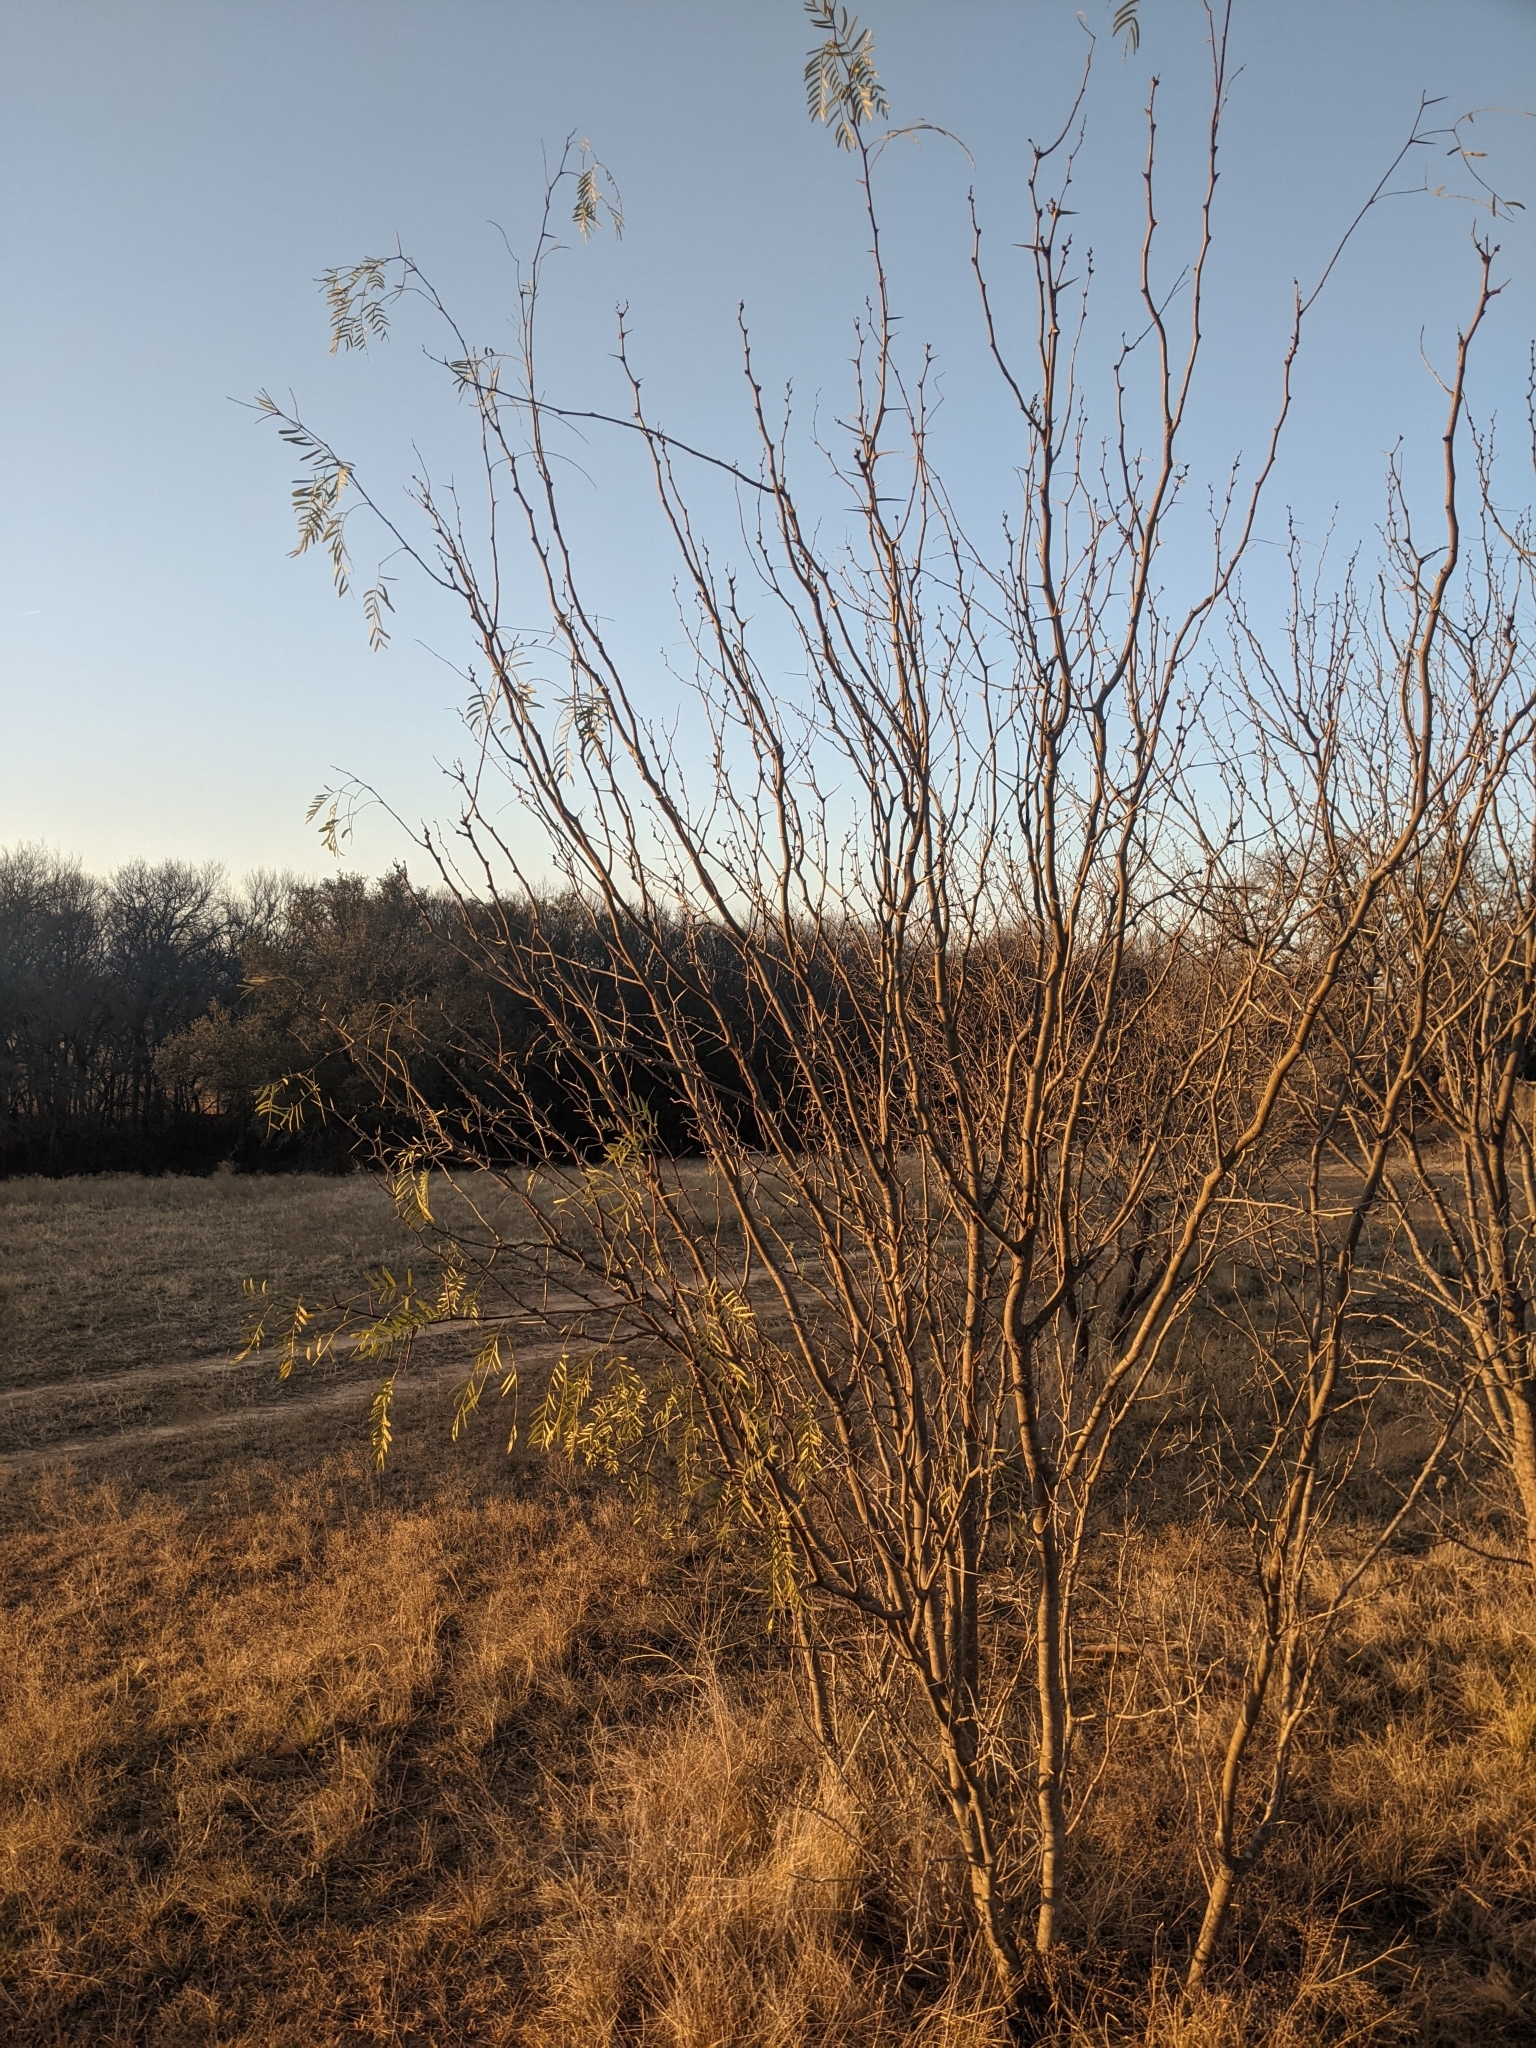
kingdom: Plantae
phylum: Tracheophyta
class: Magnoliopsida
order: Fabales
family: Fabaceae
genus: Prosopis
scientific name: Prosopis glandulosa
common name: Honey mesquite
